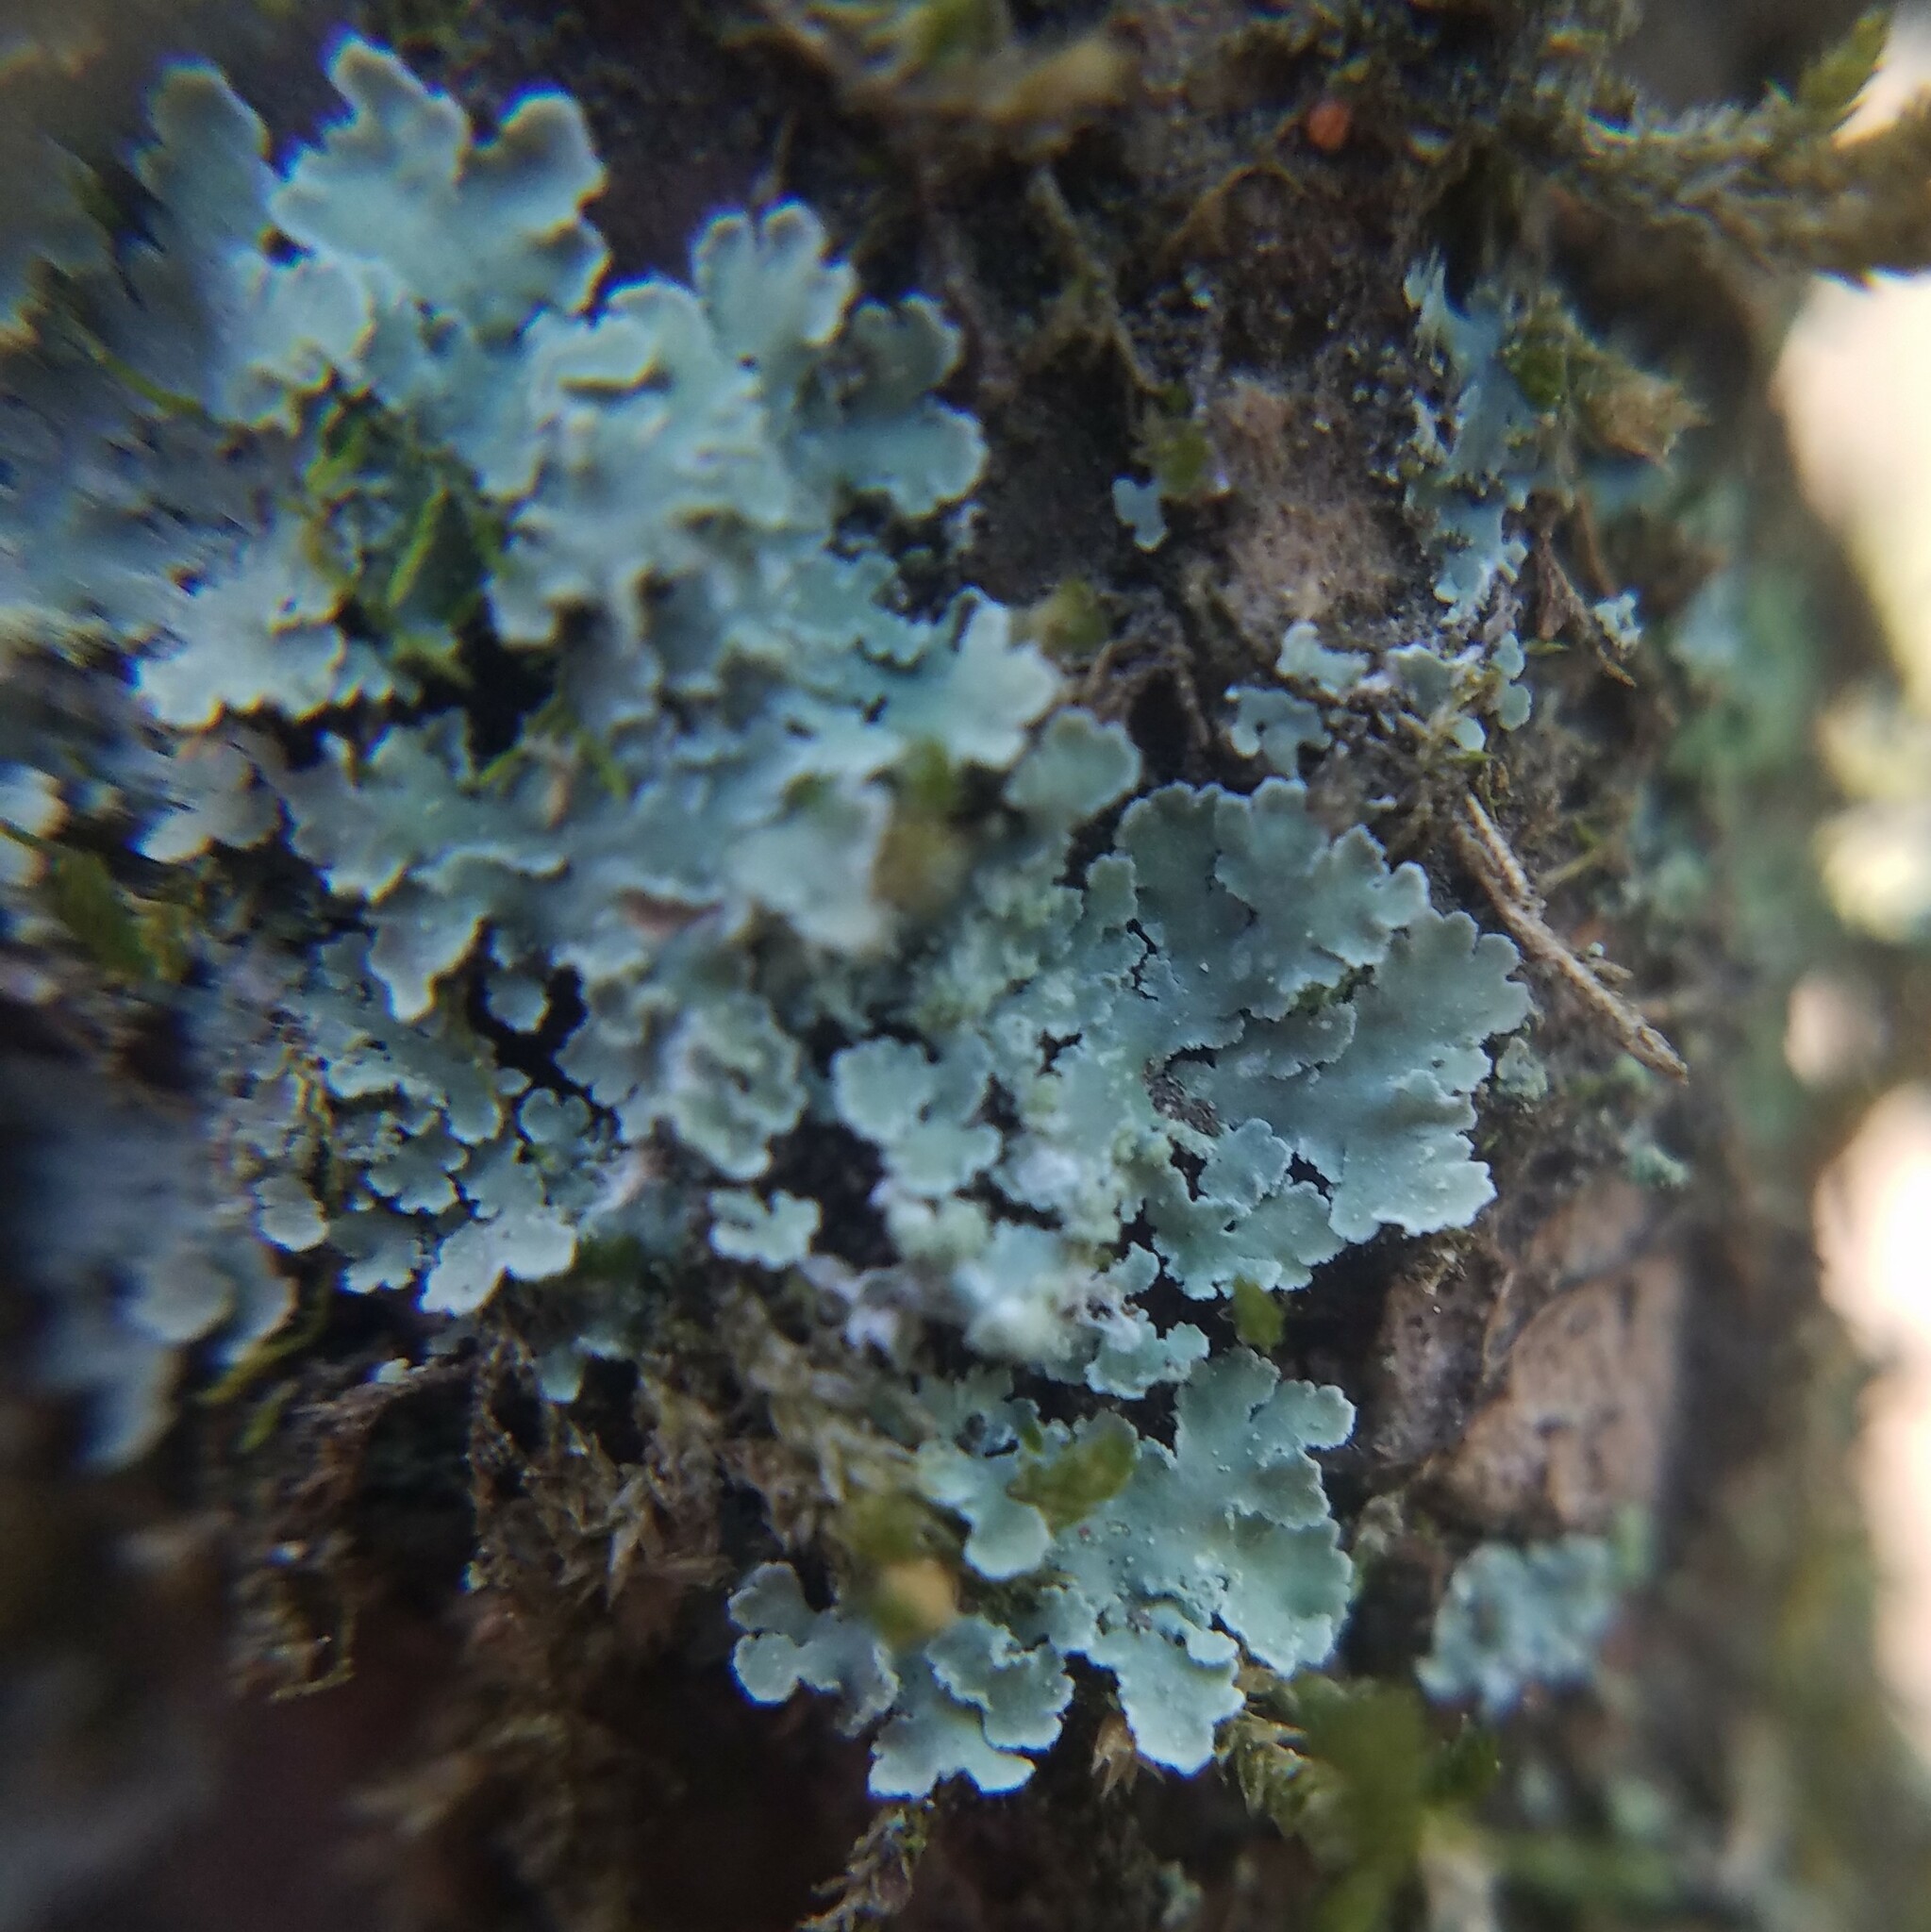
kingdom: Fungi
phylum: Ascomycota
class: Lecanoromycetes
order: Caliciales
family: Physciaceae
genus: Physcia
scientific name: Physcia atrostriata
